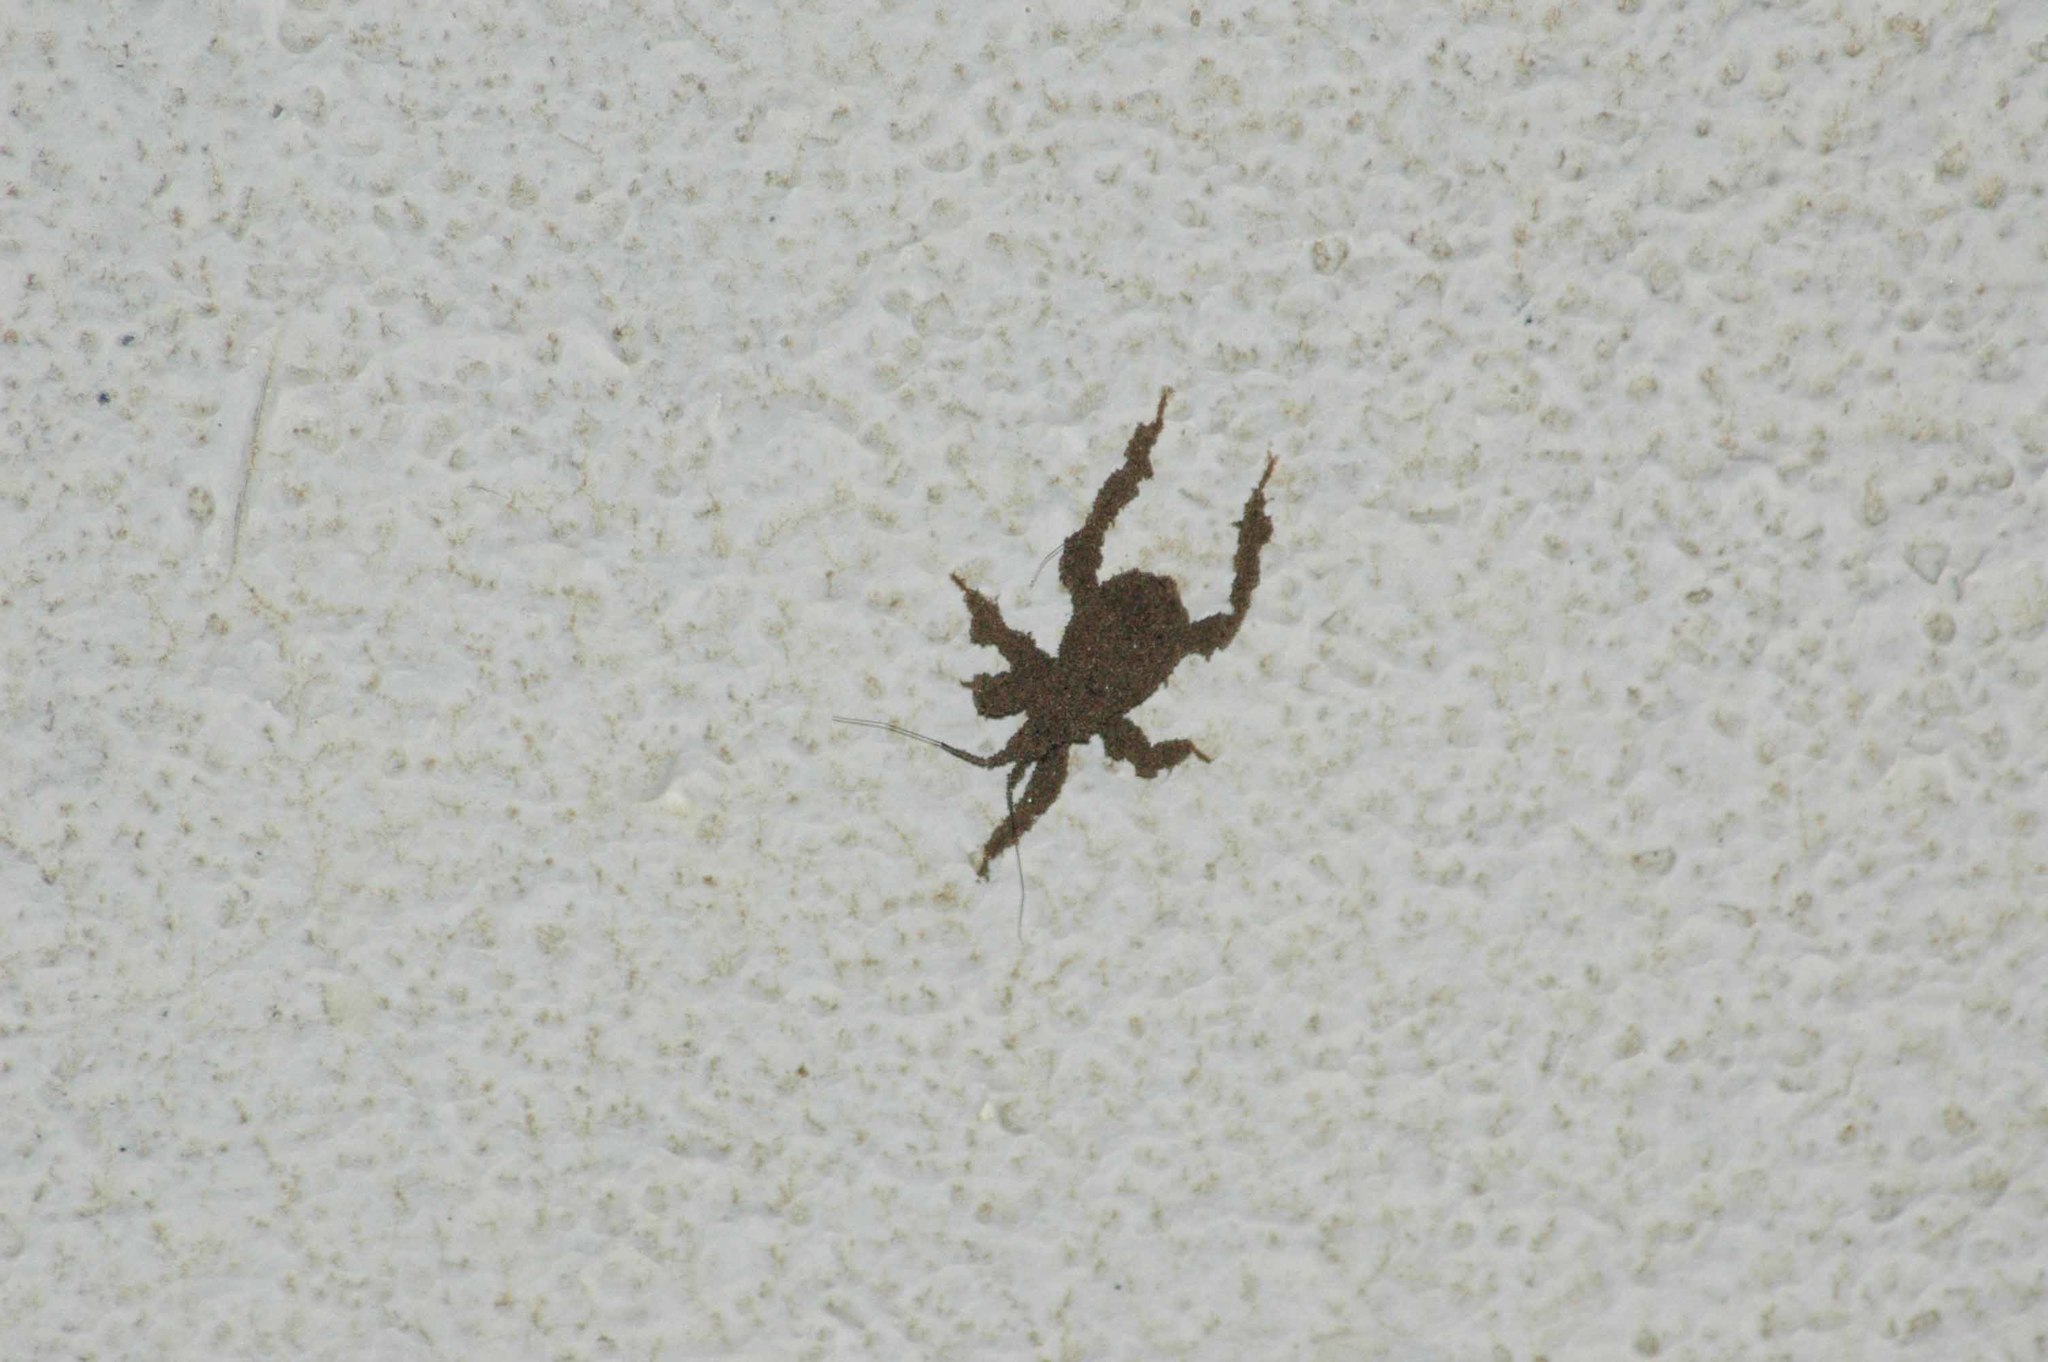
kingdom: Animalia
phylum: Arthropoda
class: Insecta
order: Hemiptera
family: Reduviidae
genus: Reduvius
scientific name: Reduvius personatus
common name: Masked hunter
